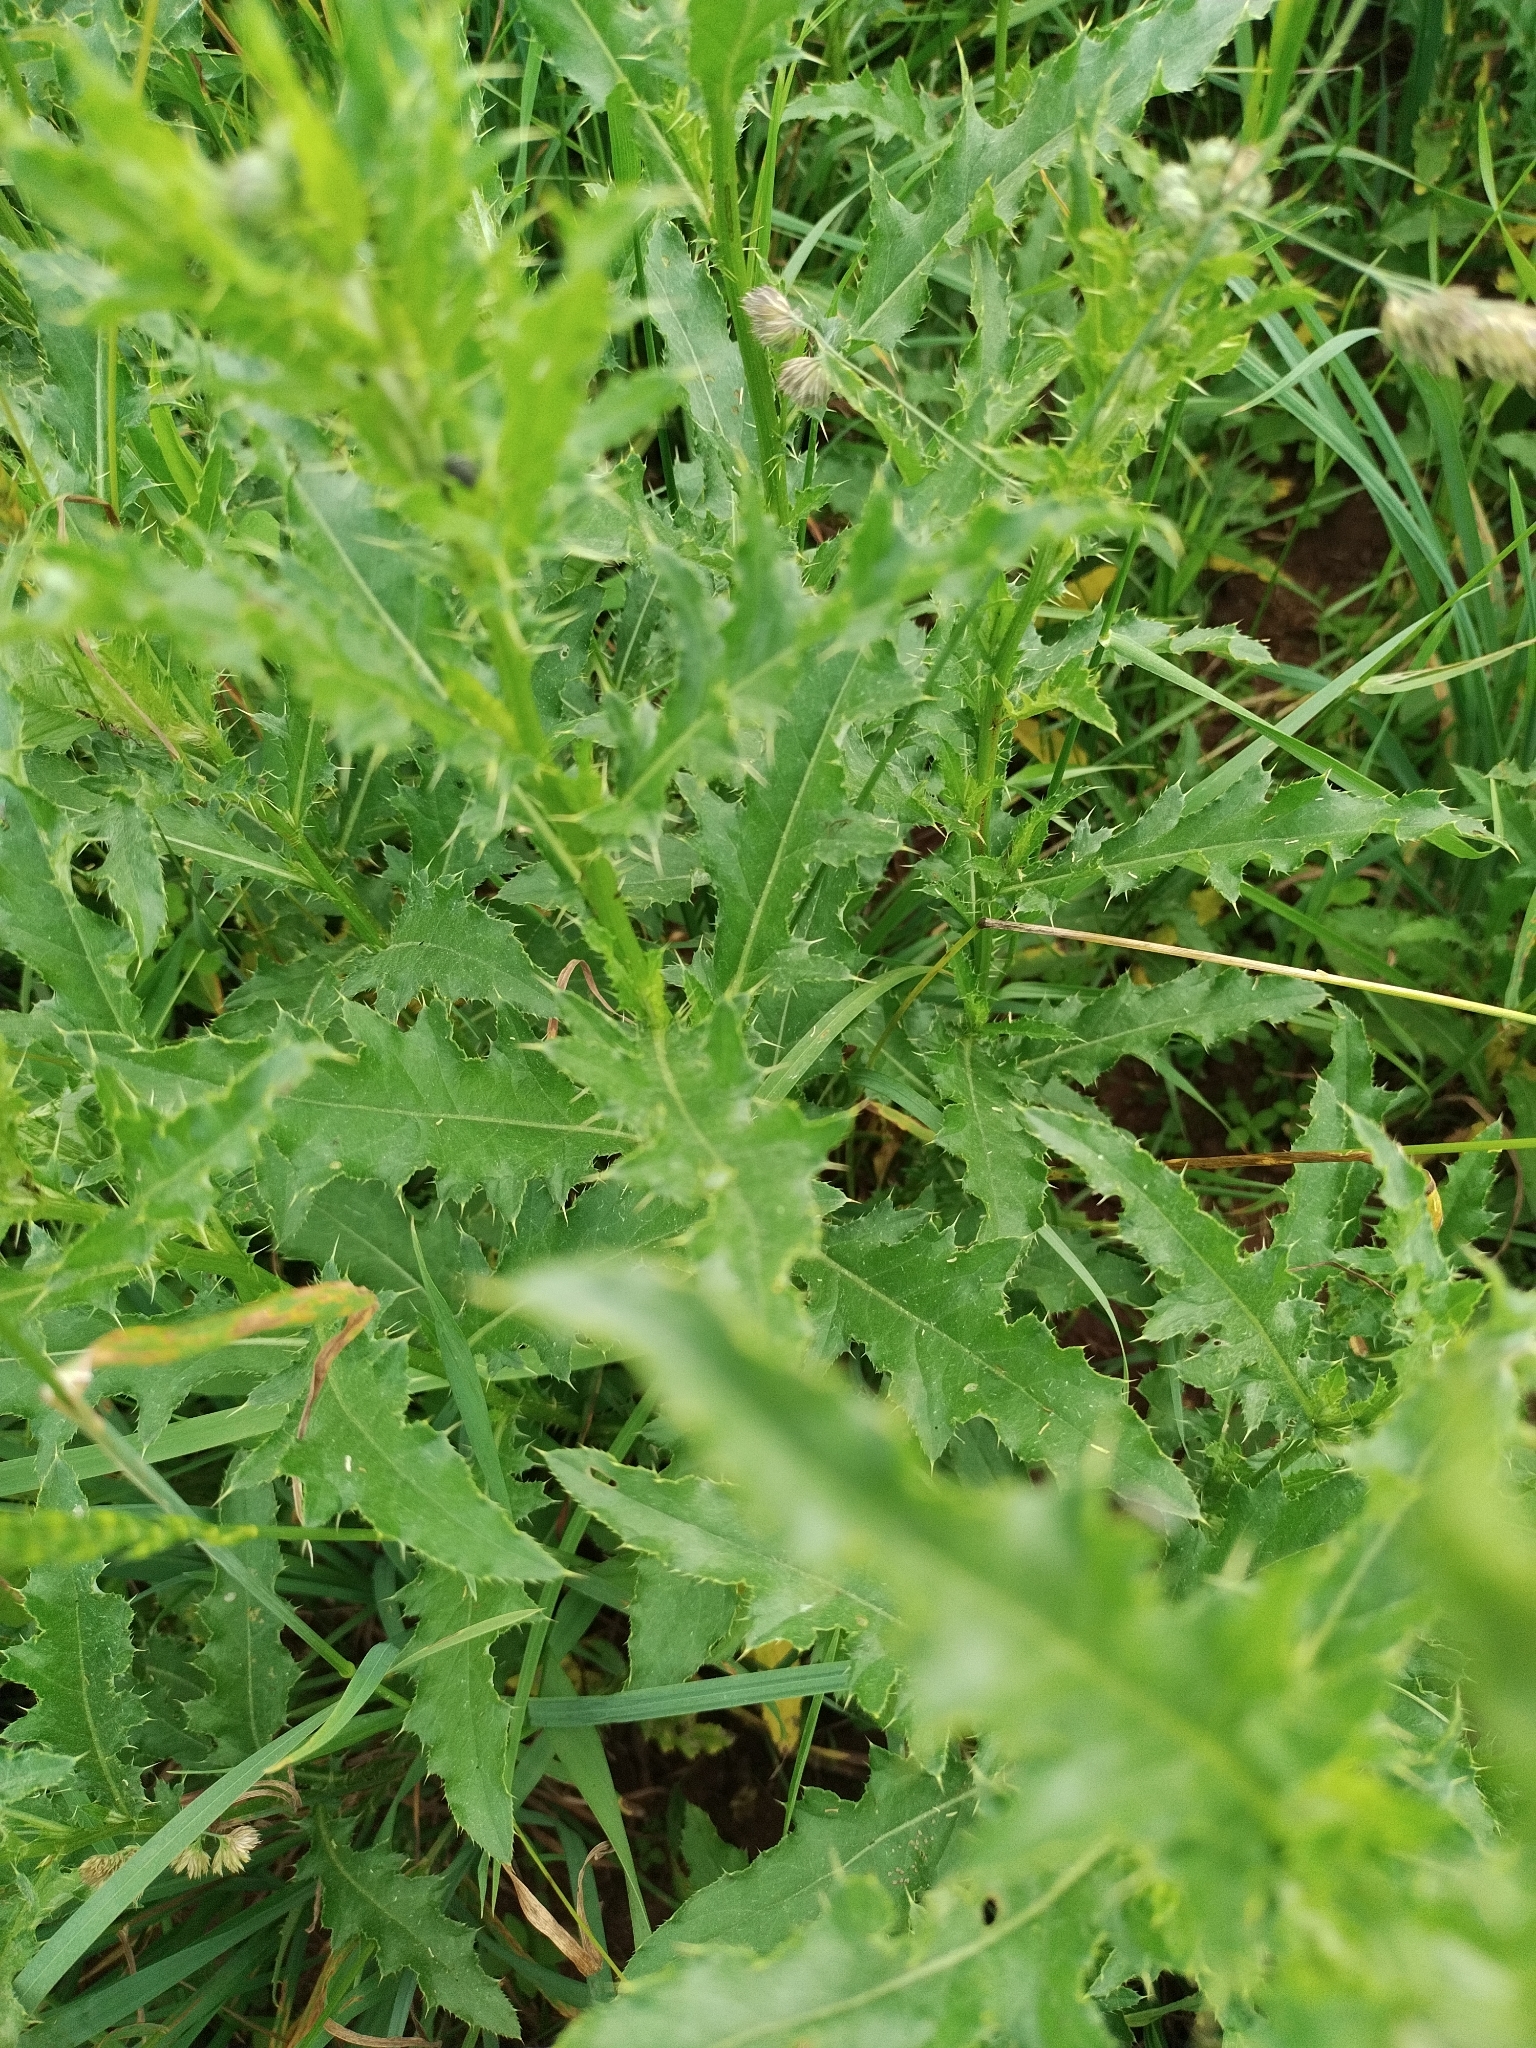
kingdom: Plantae
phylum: Tracheophyta
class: Magnoliopsida
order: Asterales
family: Asteraceae
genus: Cirsium
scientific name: Cirsium arvense
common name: Creeping thistle
